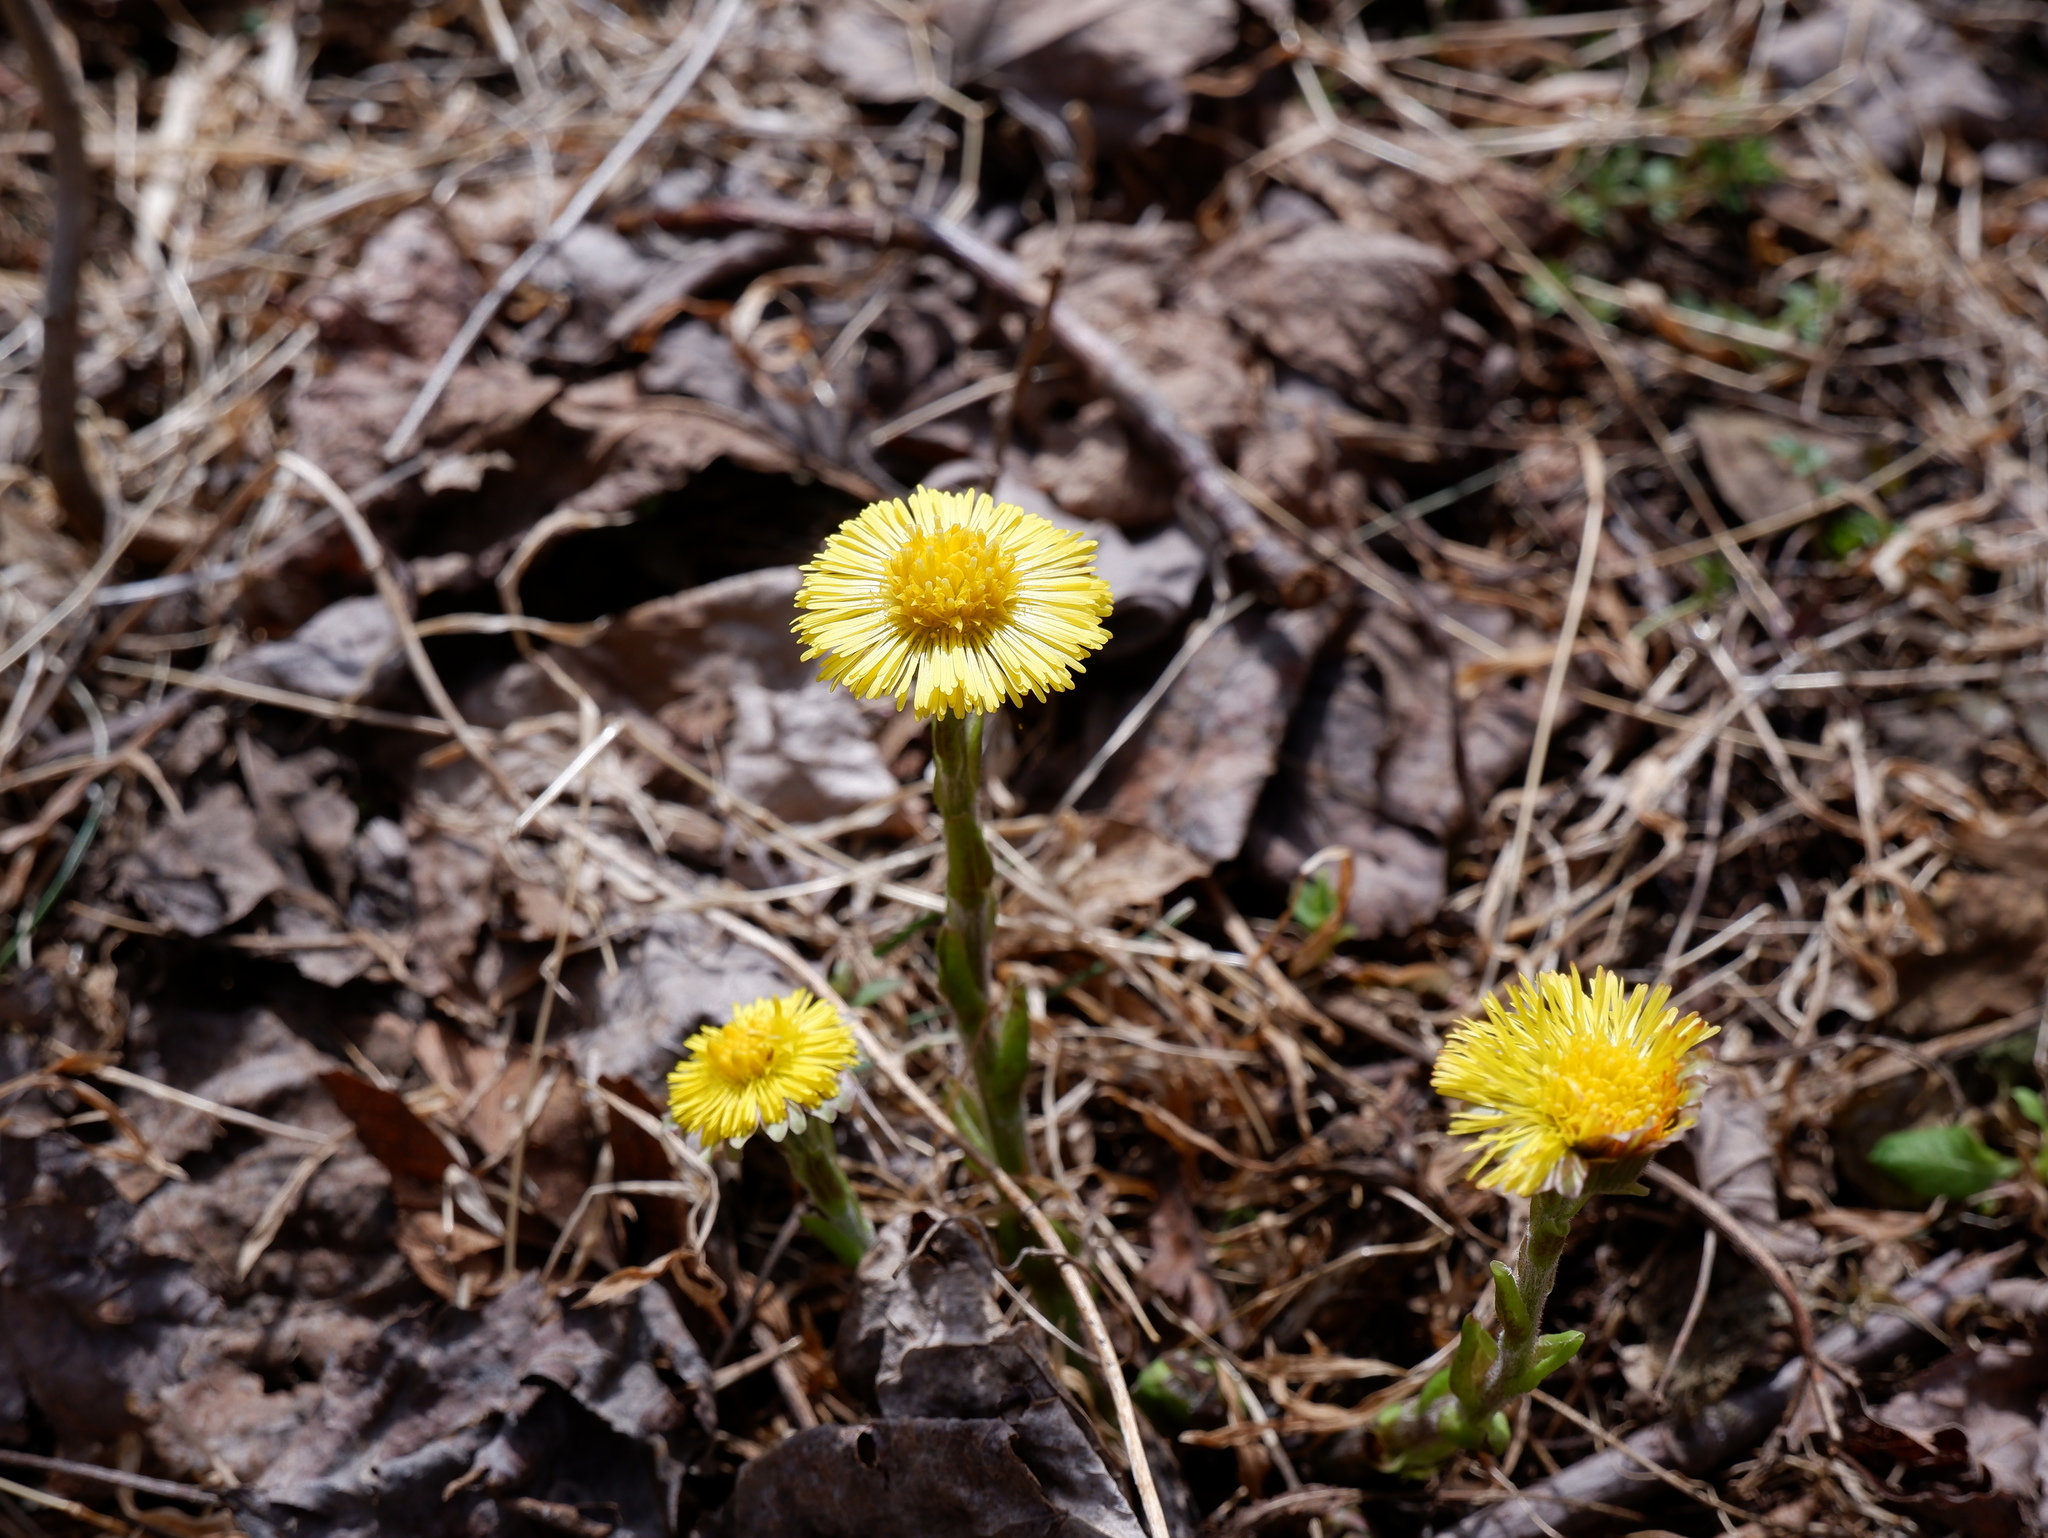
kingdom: Plantae
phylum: Tracheophyta
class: Magnoliopsida
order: Asterales
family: Asteraceae
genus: Tussilago
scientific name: Tussilago farfara
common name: Coltsfoot
